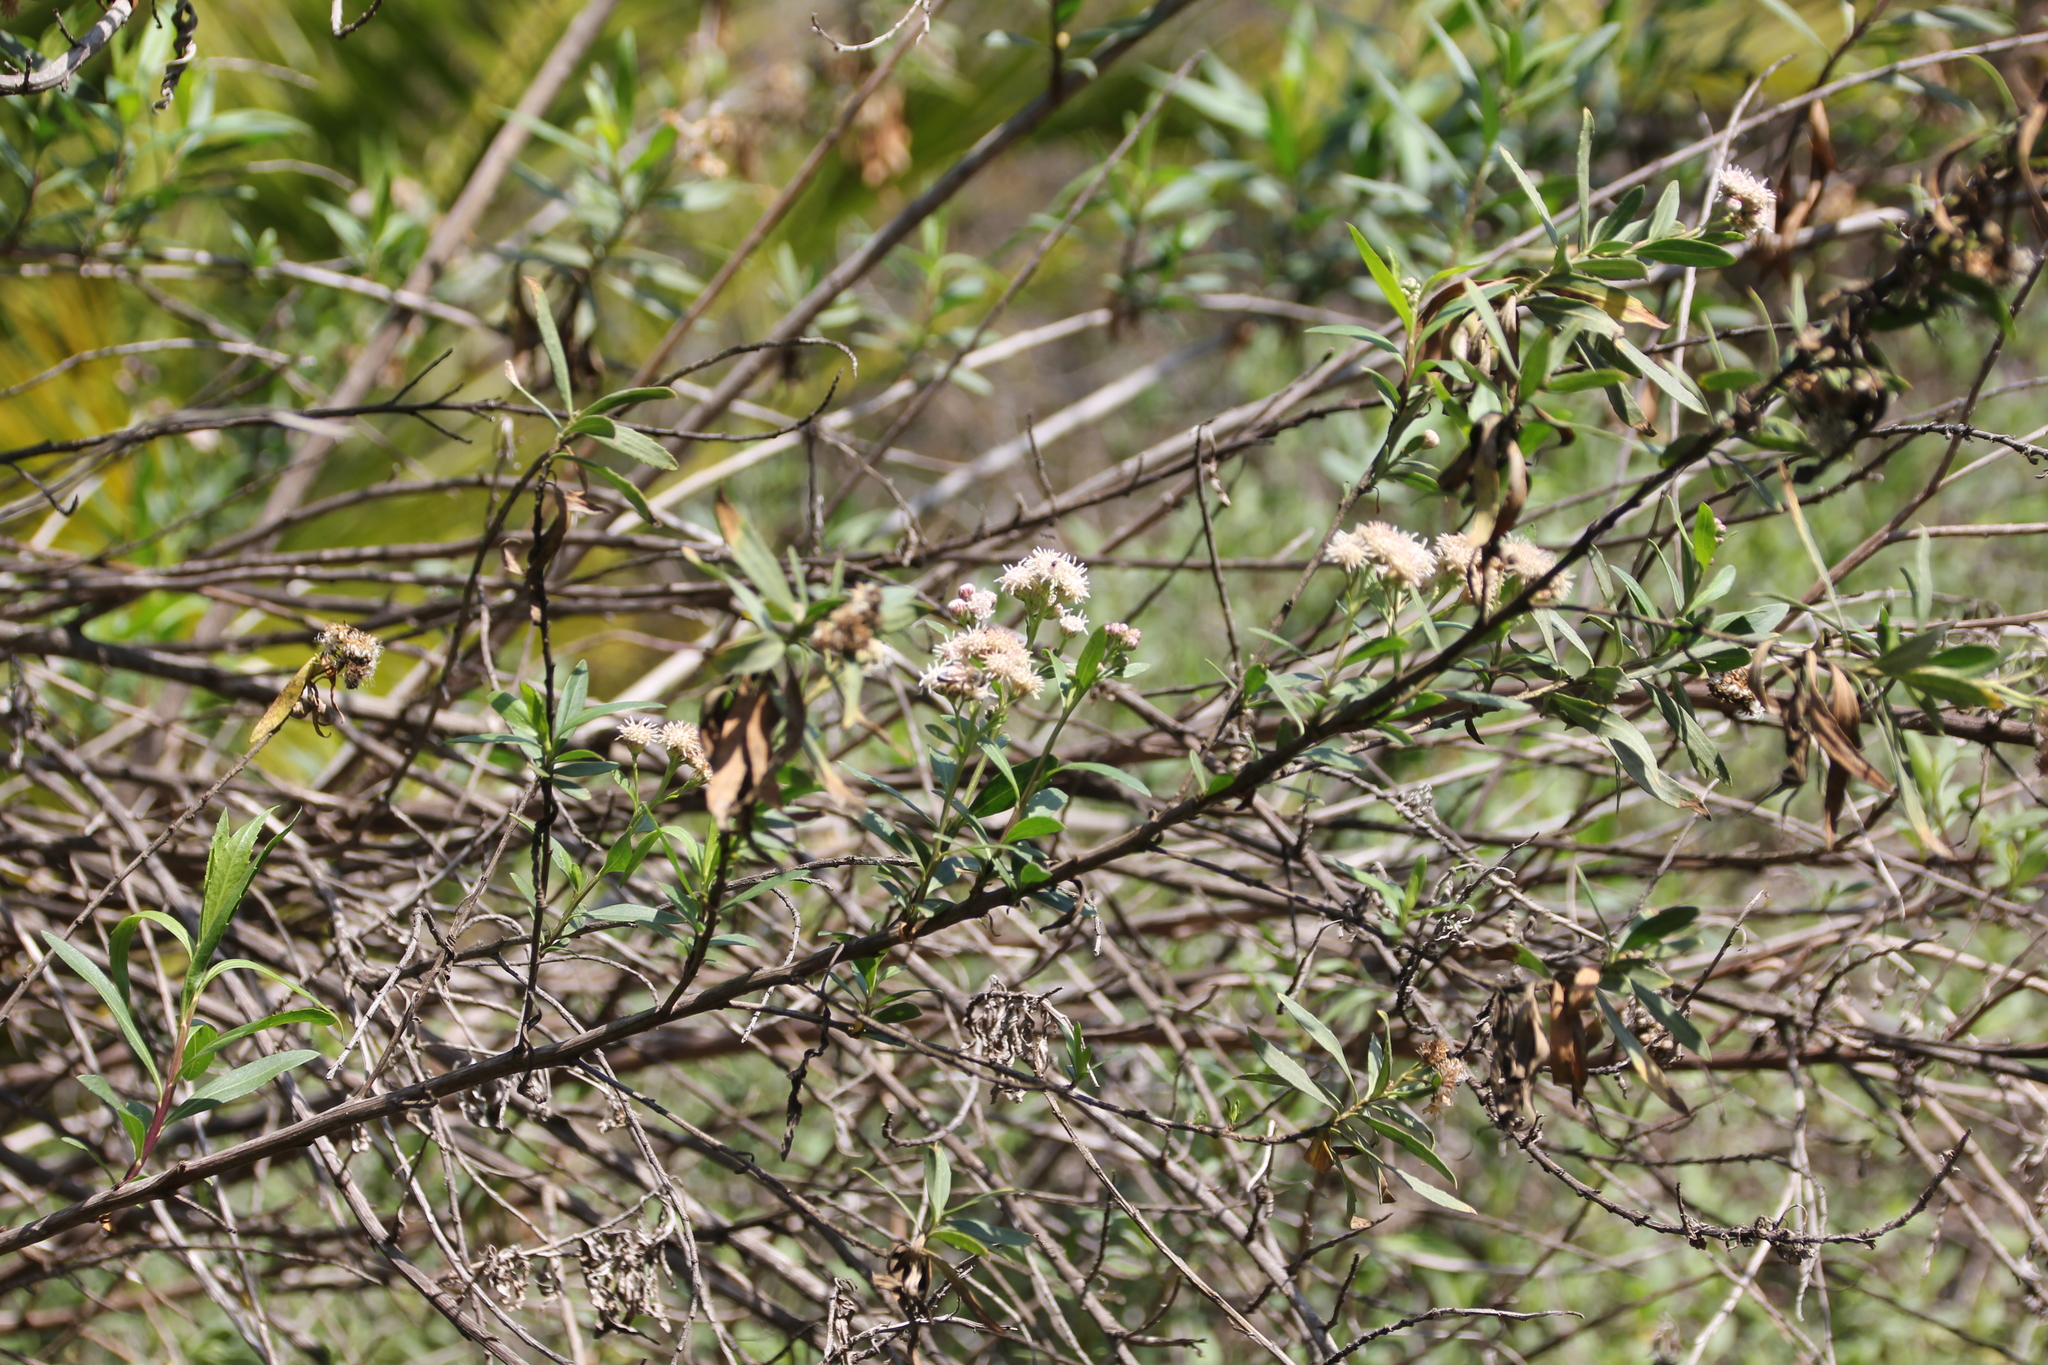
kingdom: Plantae
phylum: Tracheophyta
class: Magnoliopsida
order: Asterales
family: Asteraceae
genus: Baccharis
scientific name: Baccharis salicifolia
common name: Sticky baccharis
